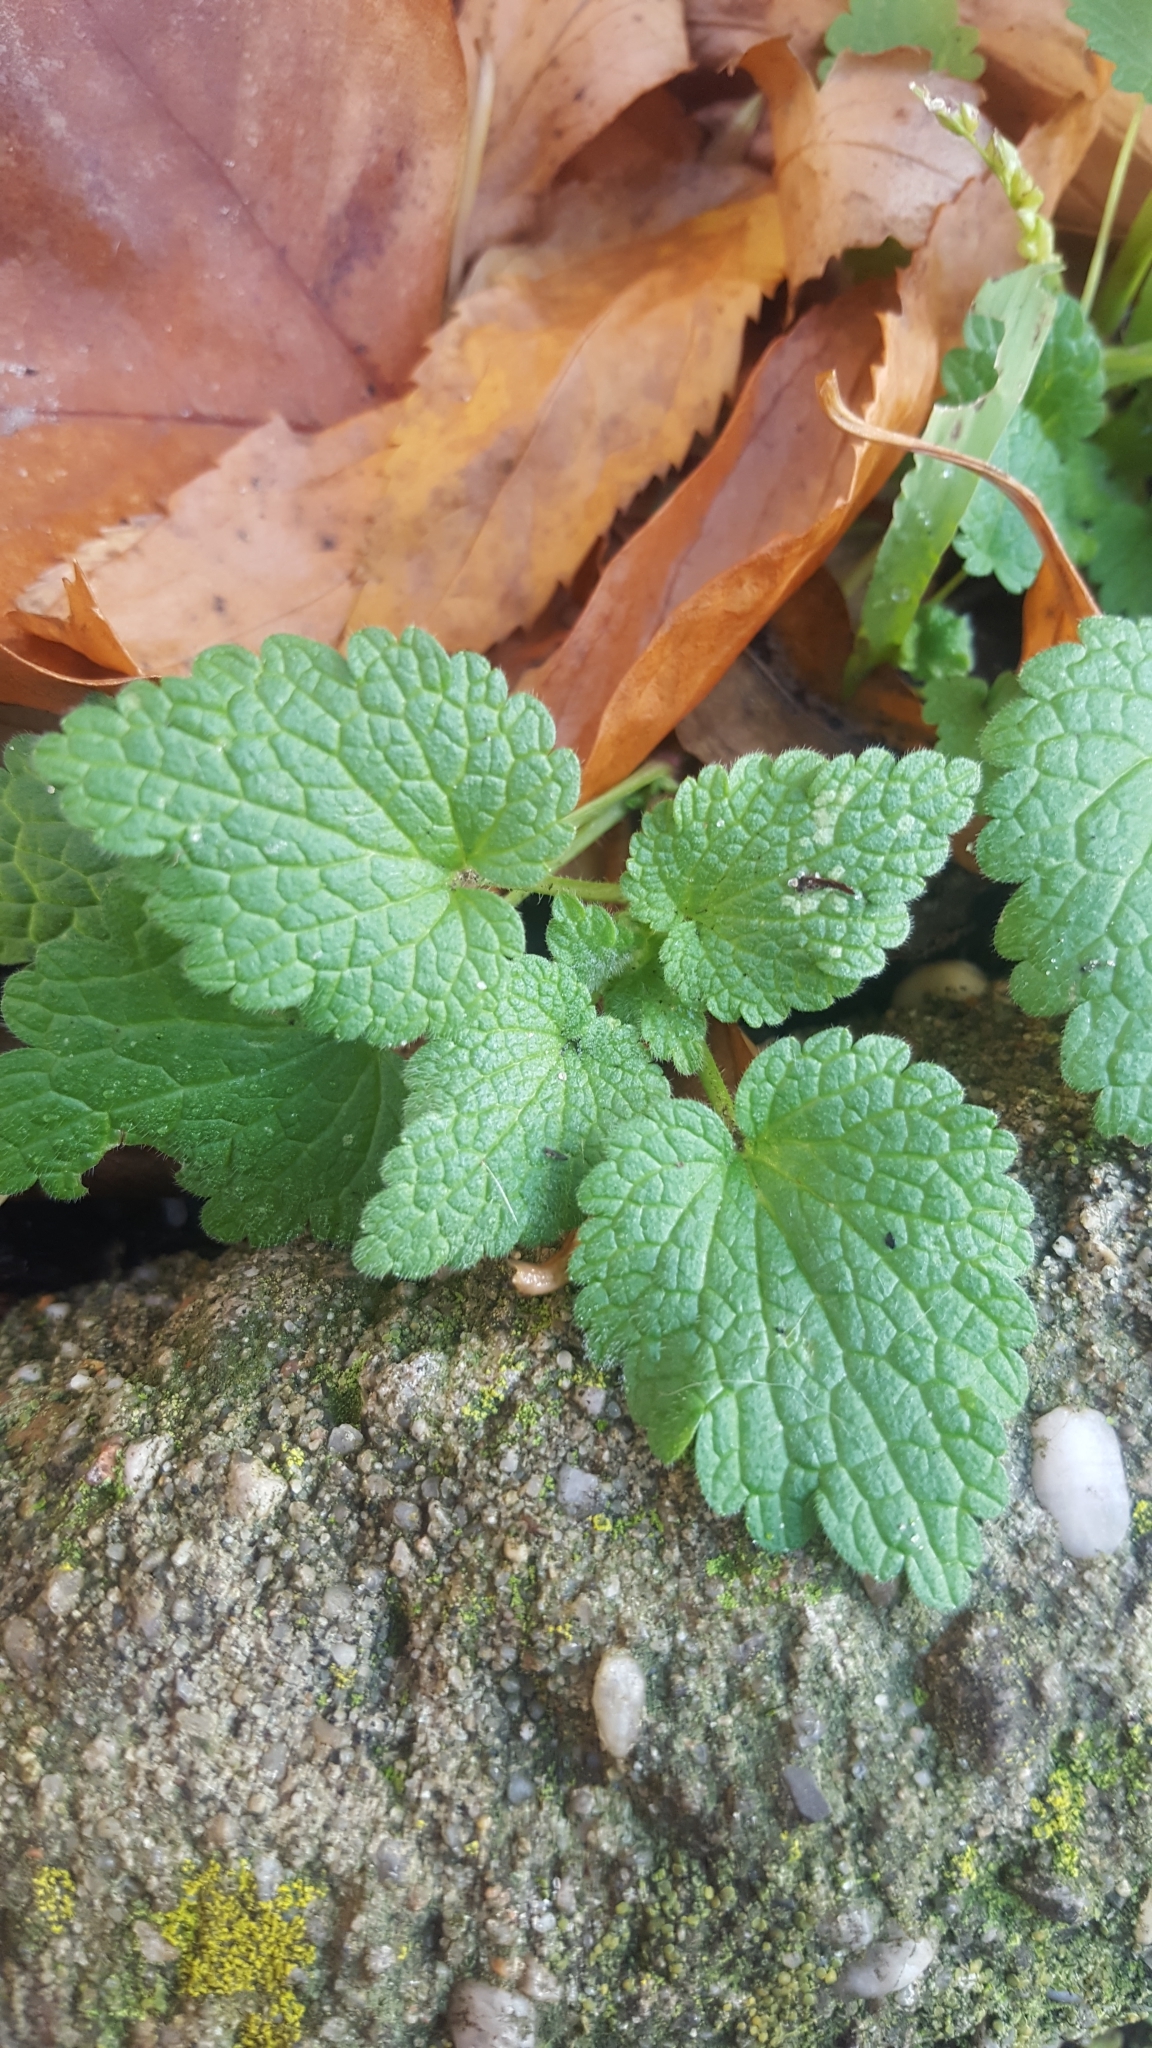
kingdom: Plantae
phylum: Tracheophyta
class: Magnoliopsida
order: Lamiales
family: Lamiaceae
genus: Lamium
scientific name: Lamium purpureum
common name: Red dead-nettle
